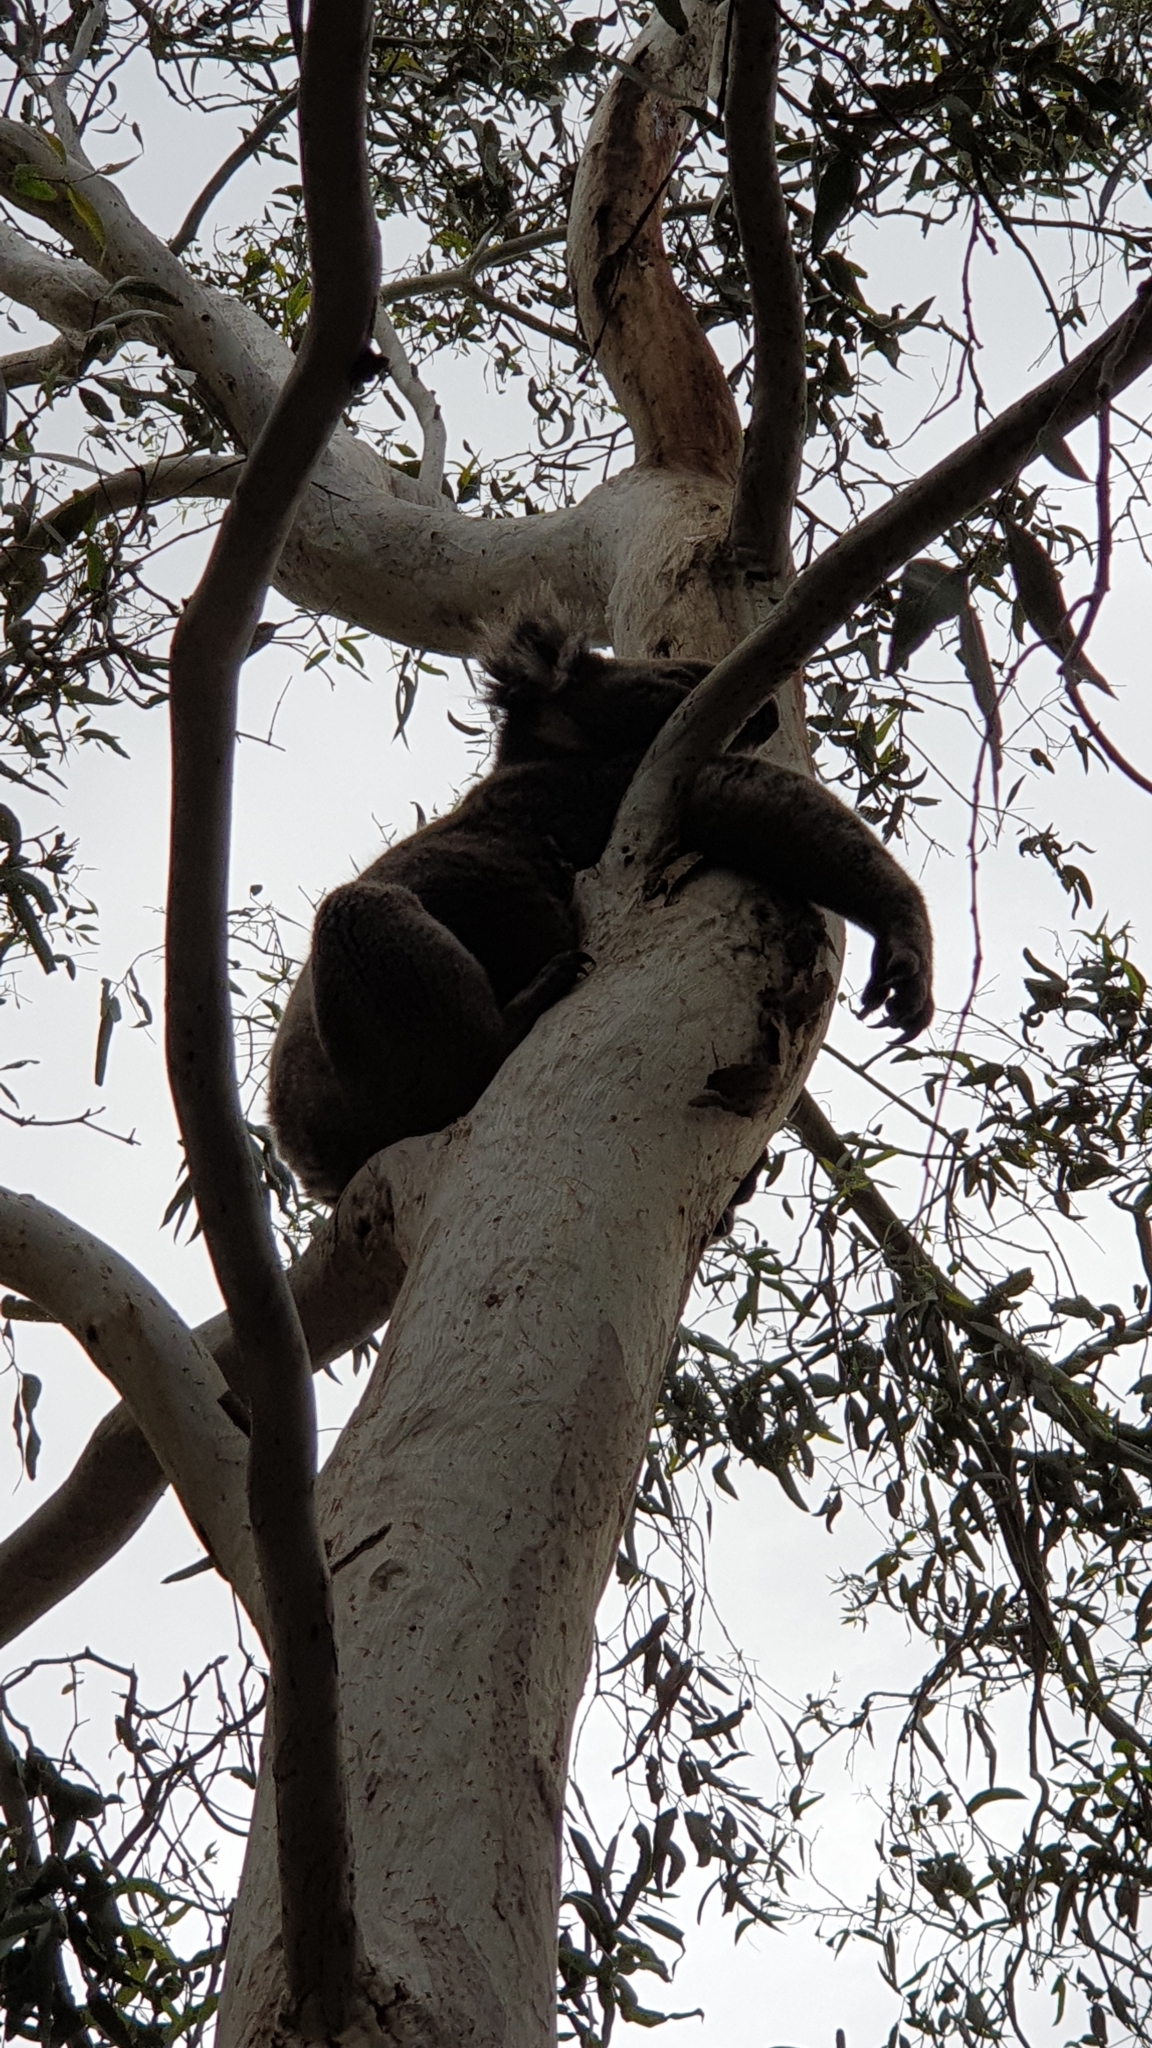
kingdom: Animalia
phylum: Chordata
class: Mammalia
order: Diprotodontia
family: Phascolarctidae
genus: Phascolarctos
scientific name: Phascolarctos cinereus
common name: Koala
